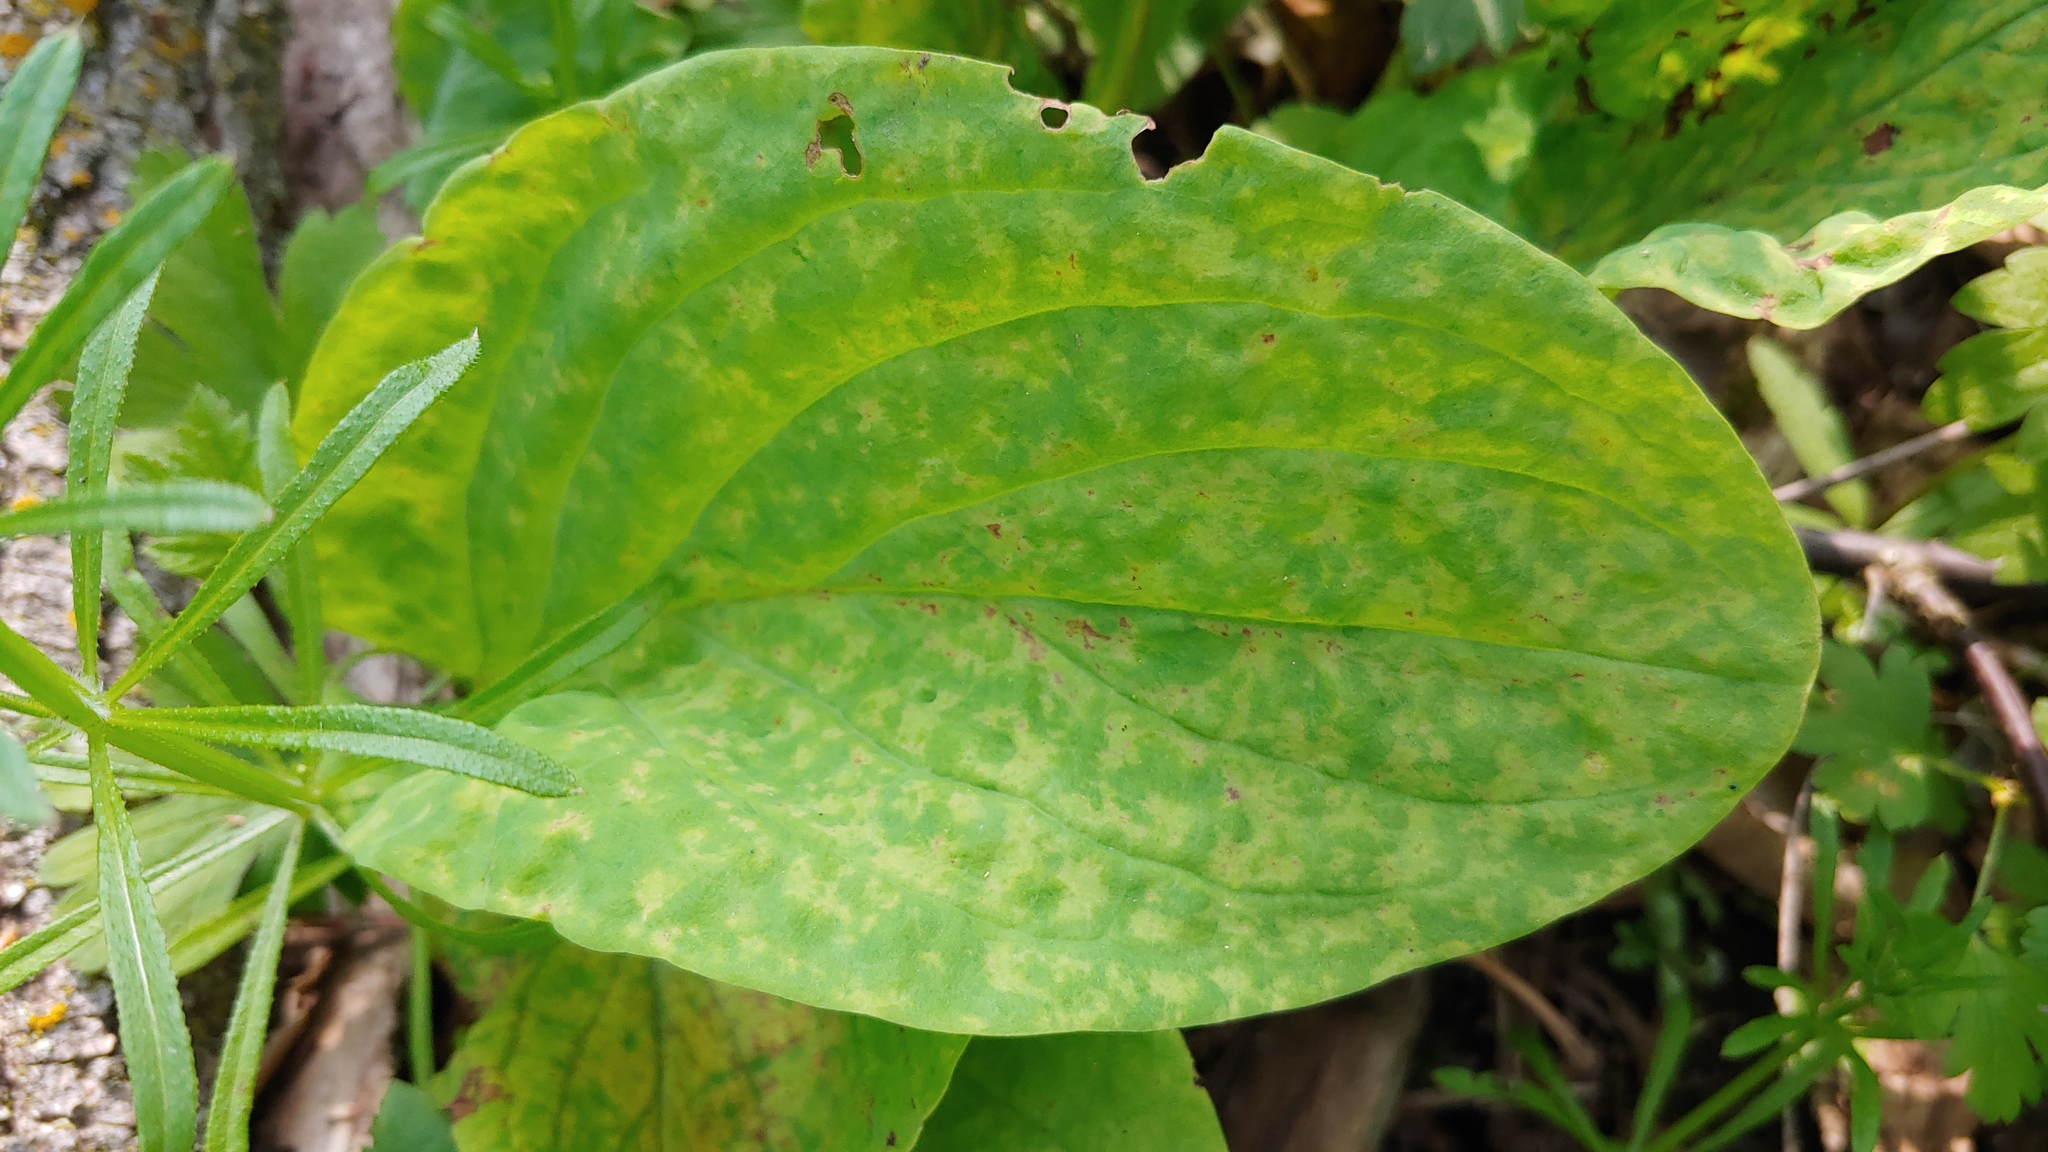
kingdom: Viruses
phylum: Kitrinoviricota
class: Alsuviricetes
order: Martellivirales
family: Virgaviridae
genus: Tobamovirus
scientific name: Tobamovirus Ribgrass mosaic virus
